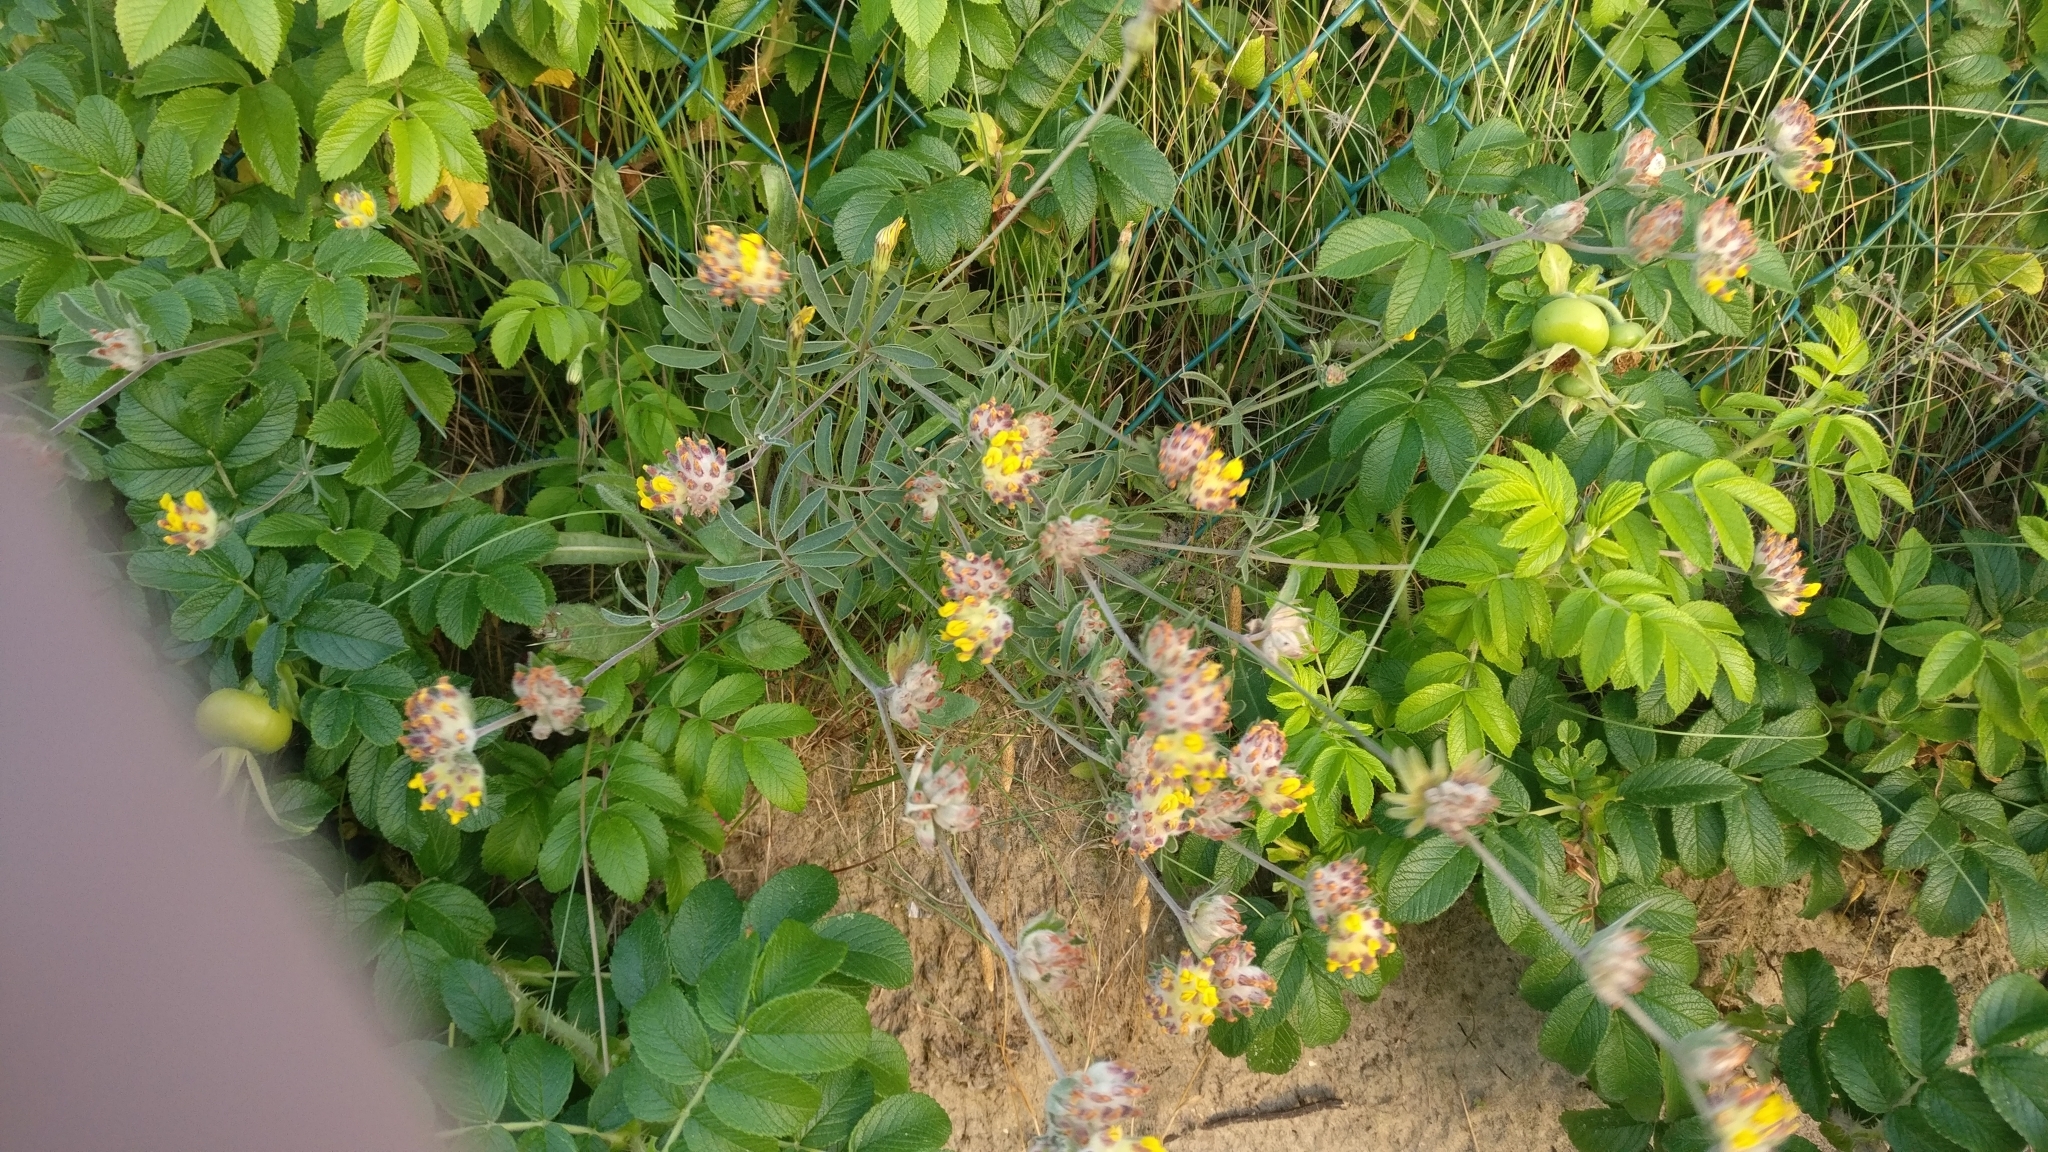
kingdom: Plantae
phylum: Tracheophyta
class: Magnoliopsida
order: Fabales
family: Fabaceae
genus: Anthyllis
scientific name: Anthyllis vulneraria
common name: Kidney vetch
